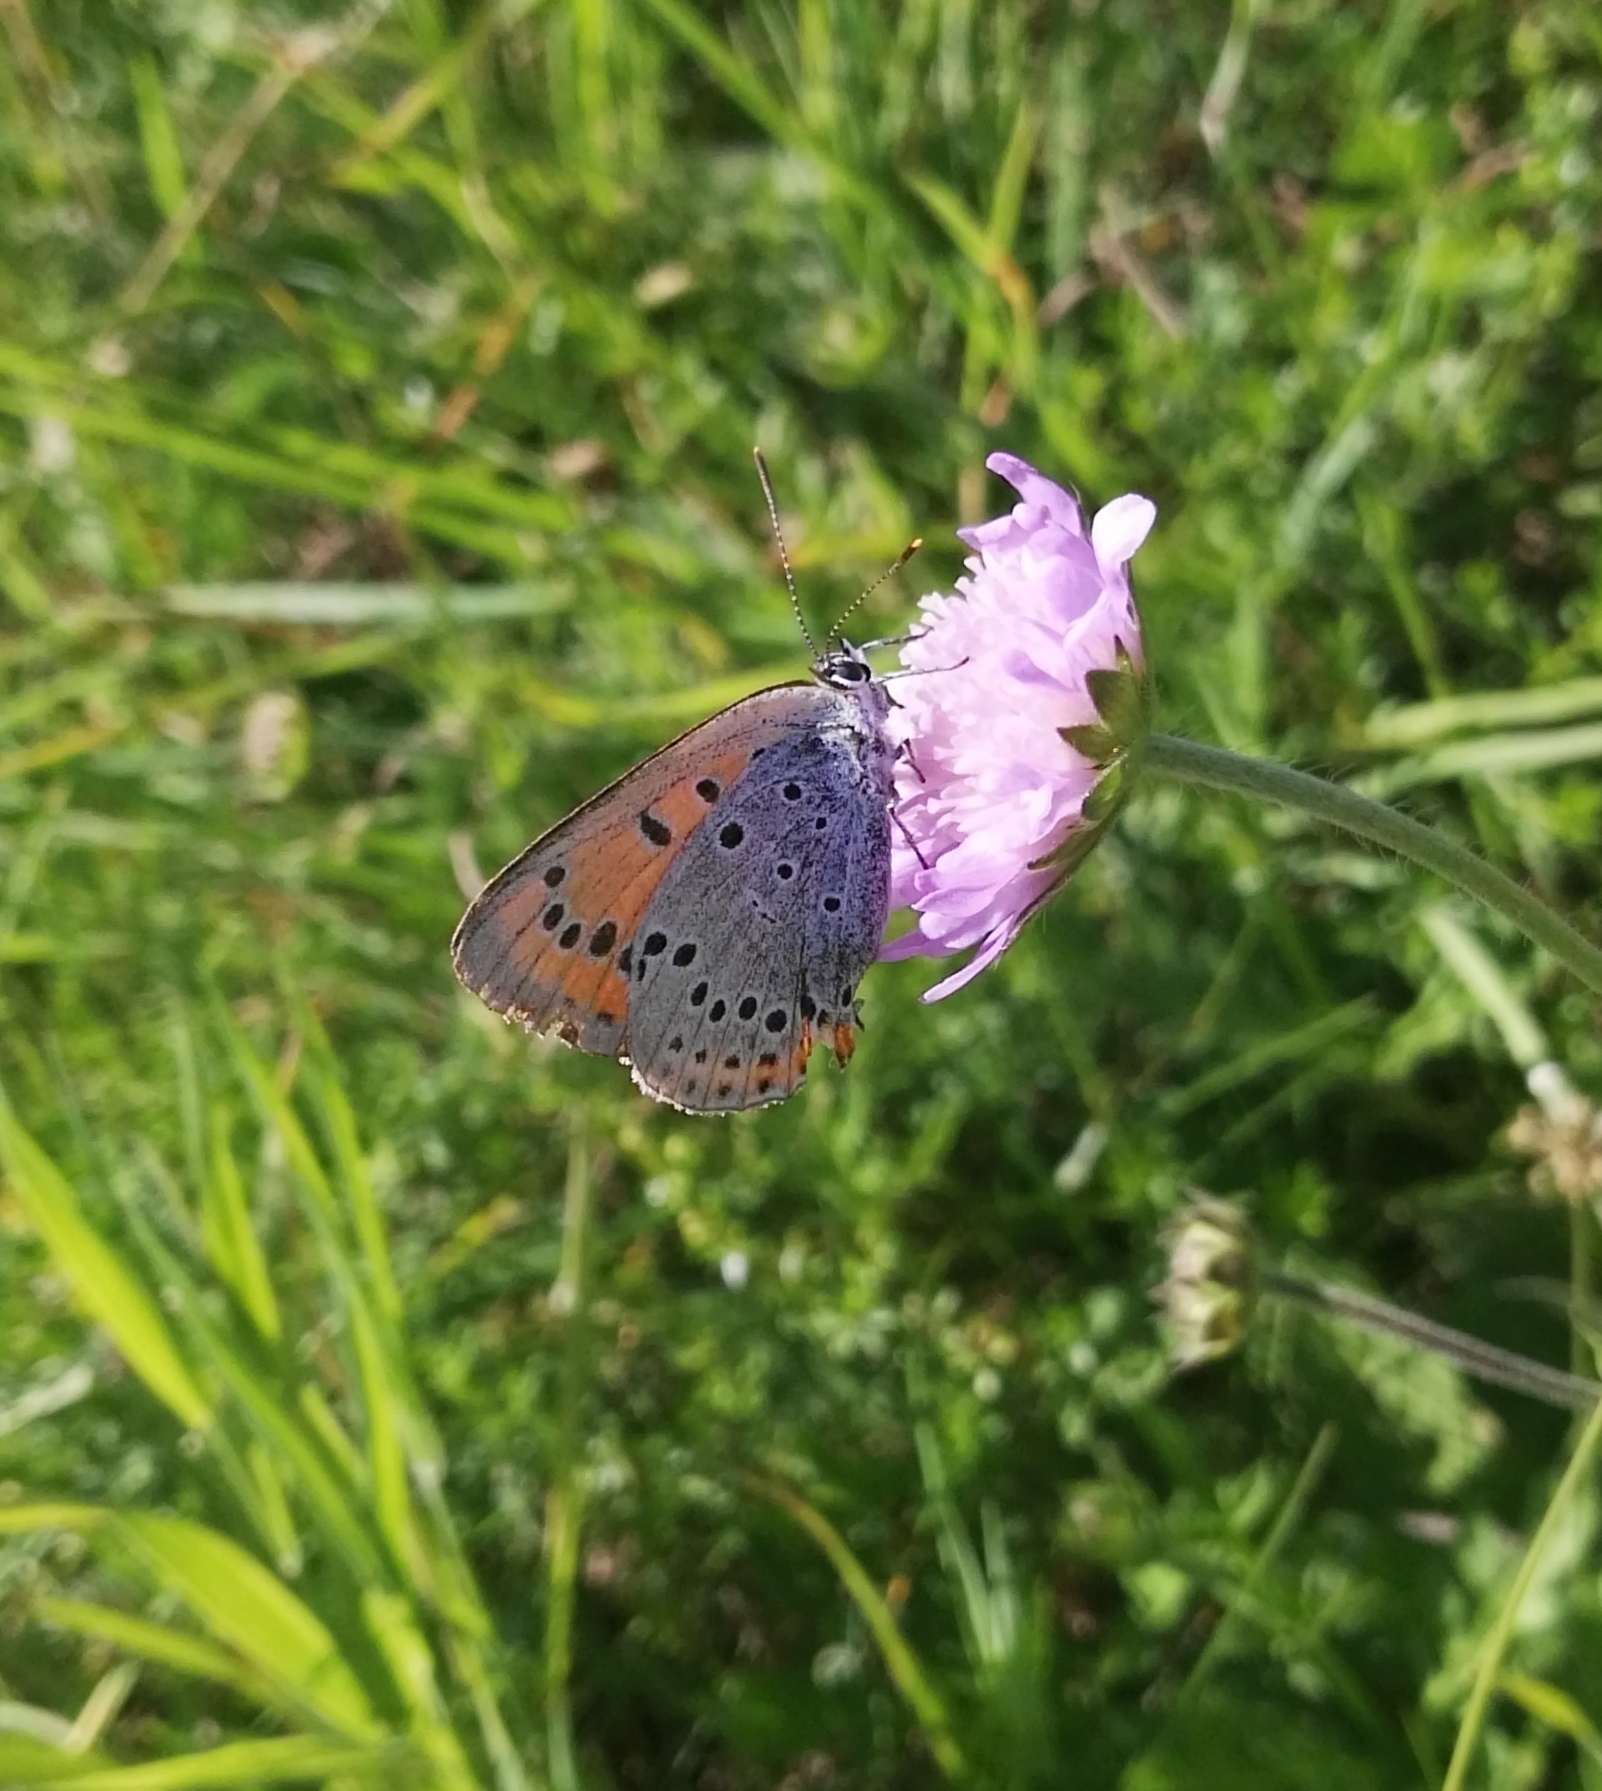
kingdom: Animalia
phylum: Arthropoda
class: Insecta
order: Lepidoptera
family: Lycaenidae
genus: Lycaena
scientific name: Lycaena dispar
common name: Large copper
